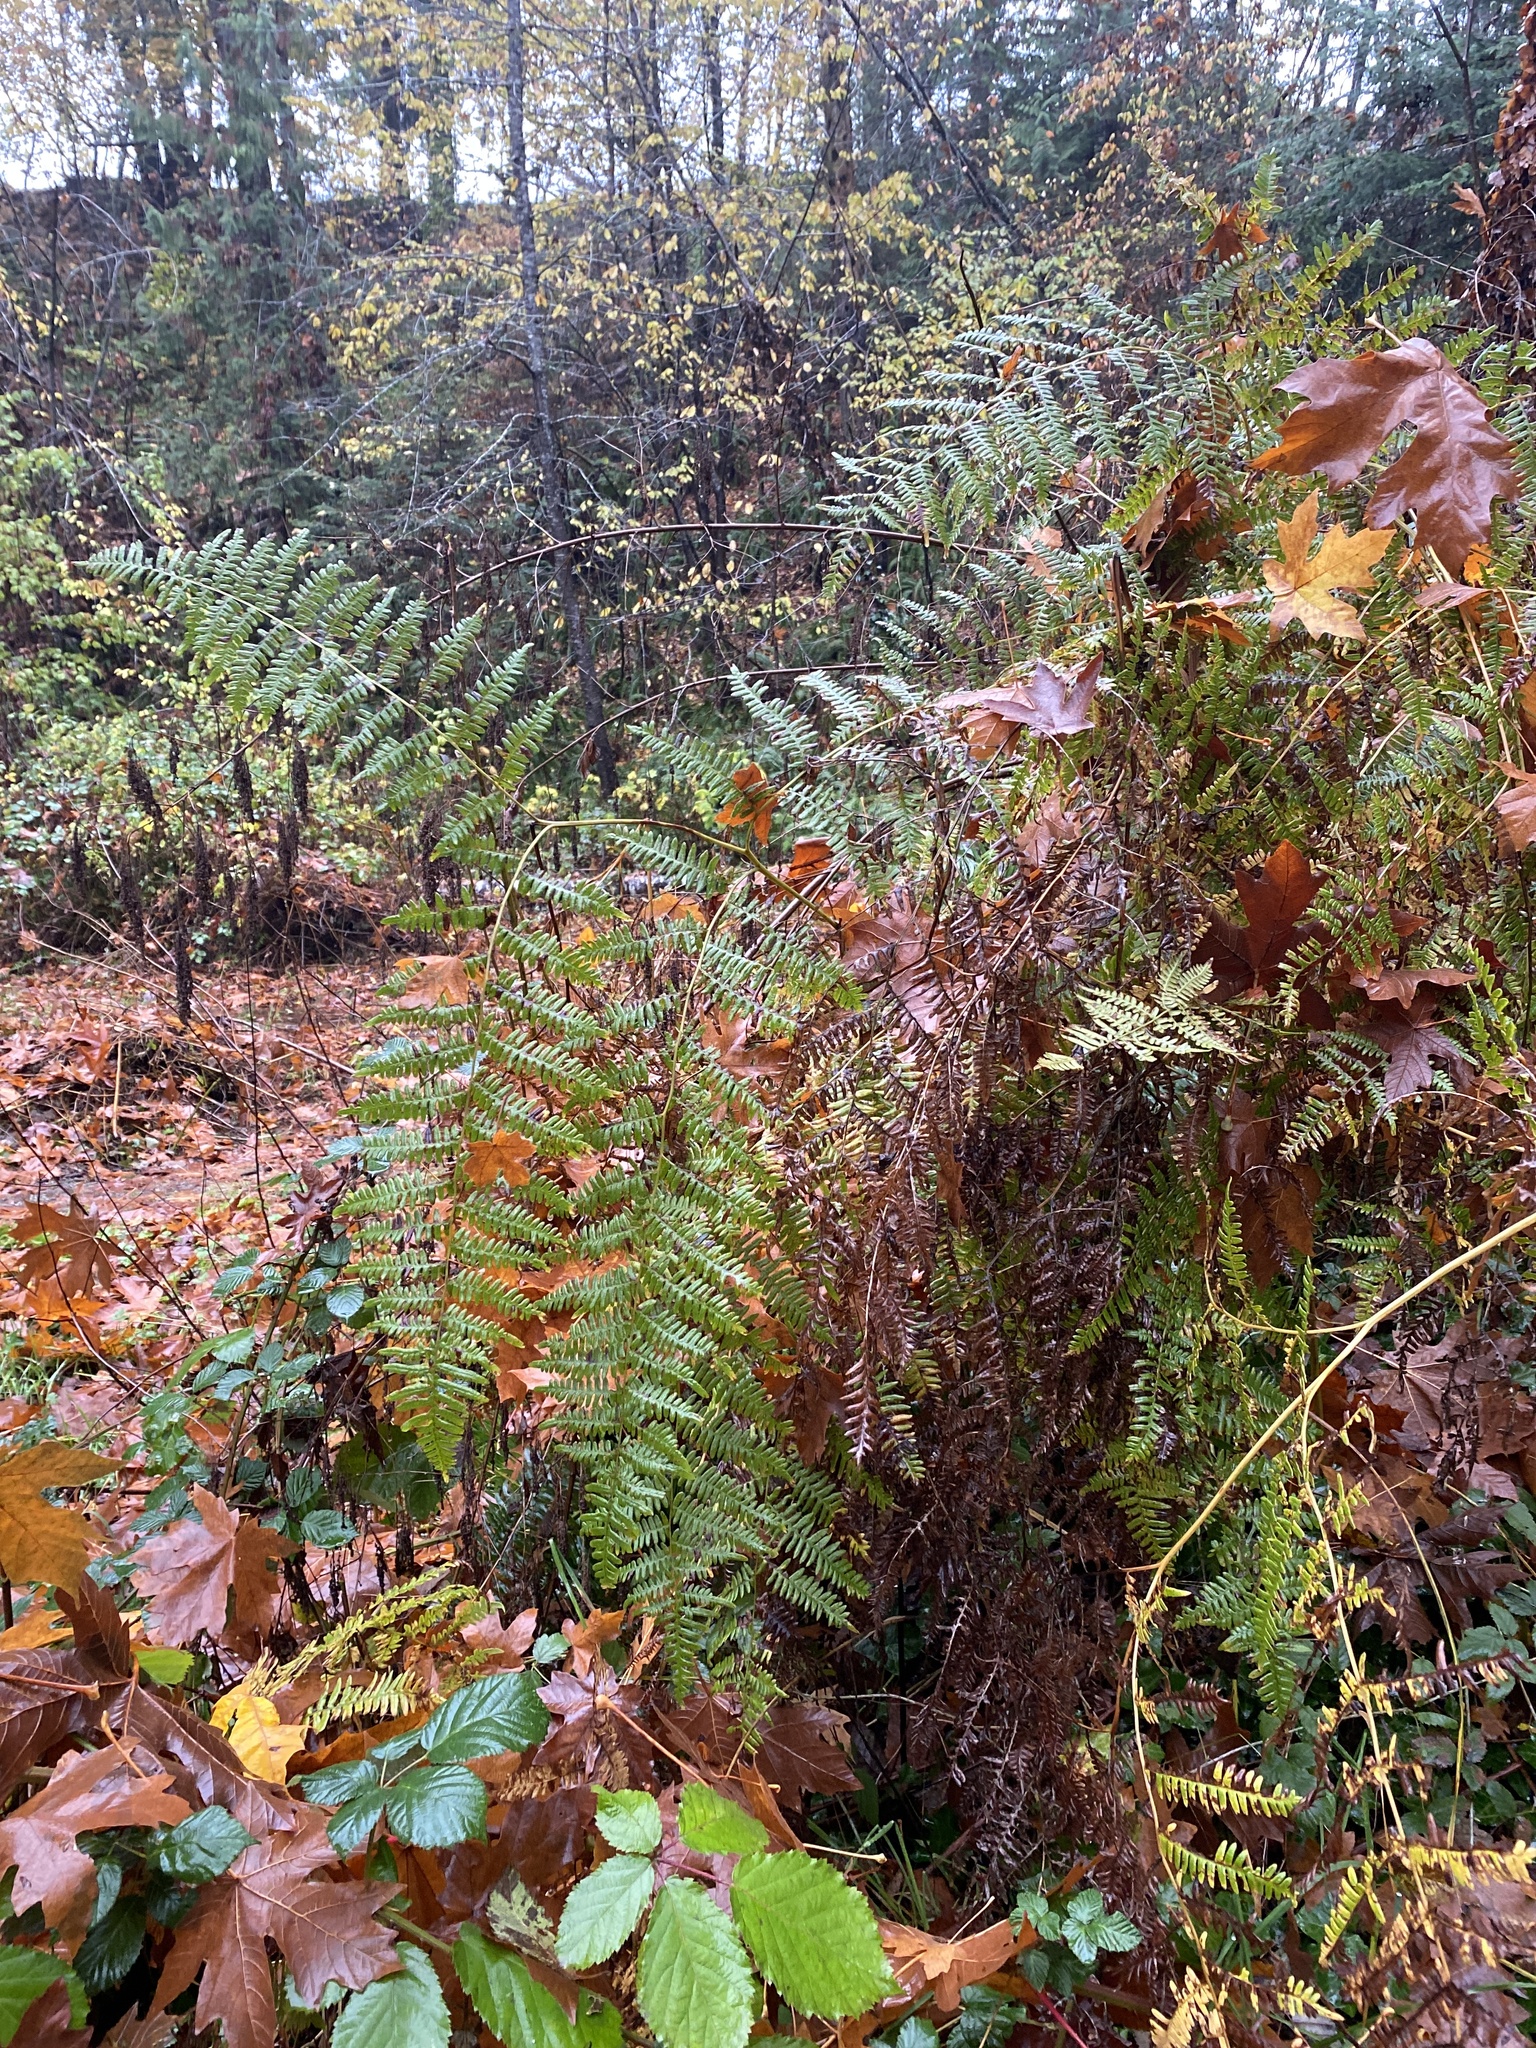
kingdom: Plantae
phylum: Tracheophyta
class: Polypodiopsida
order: Polypodiales
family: Dennstaedtiaceae
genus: Pteridium
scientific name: Pteridium aquilinum
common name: Bracken
